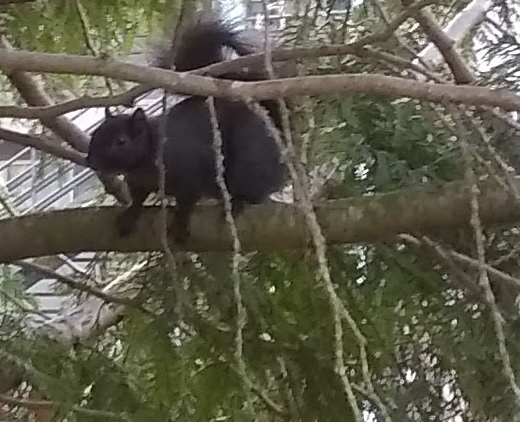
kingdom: Animalia
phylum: Chordata
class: Mammalia
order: Rodentia
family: Sciuridae
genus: Sciurus
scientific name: Sciurus carolinensis
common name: Eastern gray squirrel
